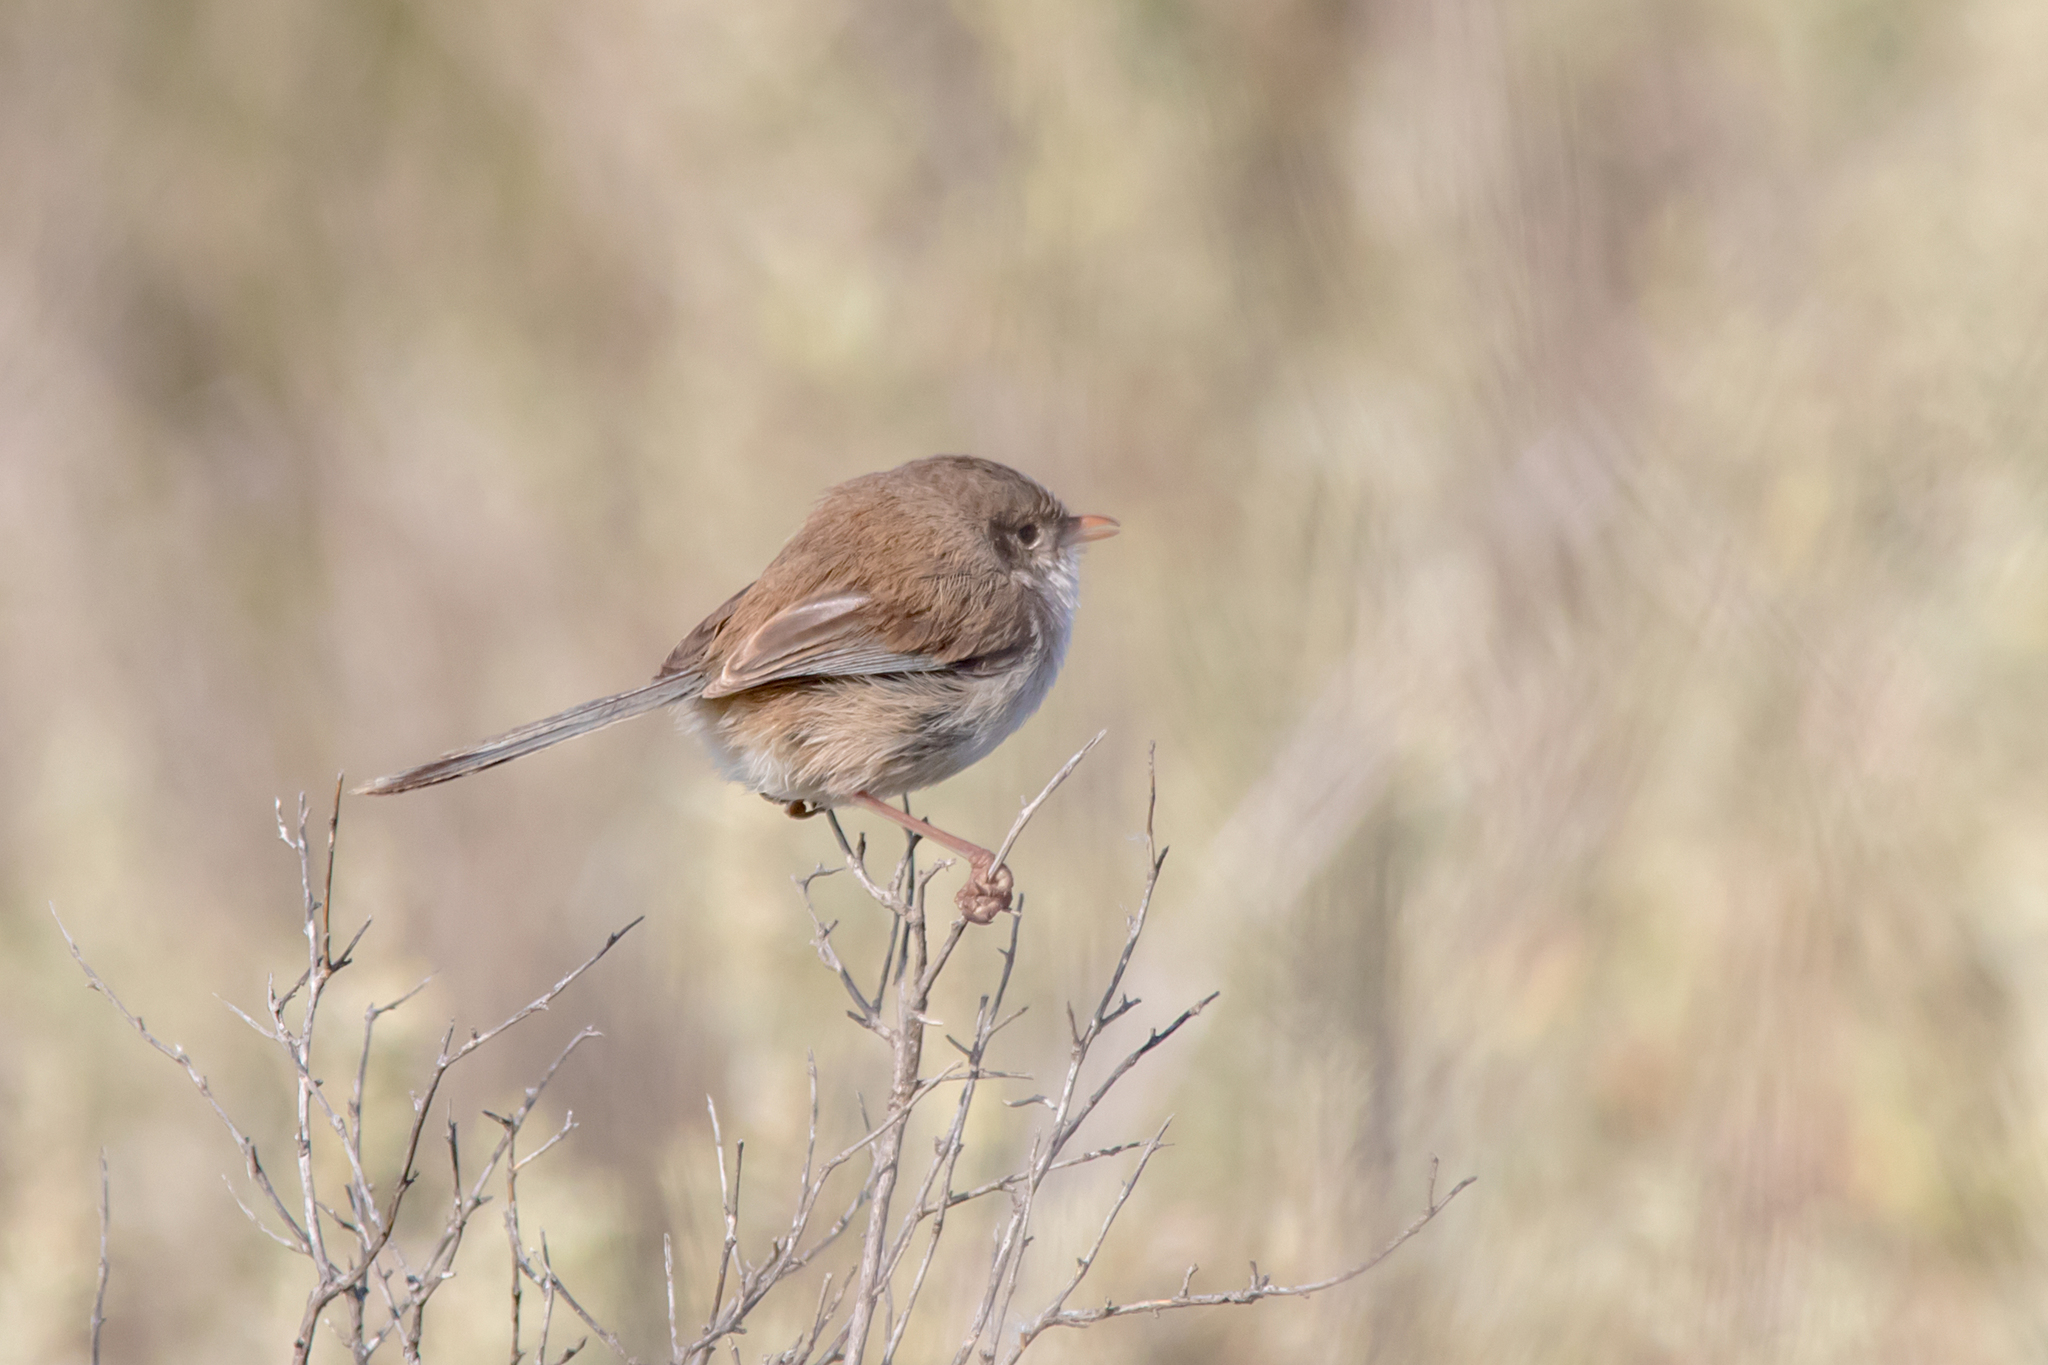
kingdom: Animalia
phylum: Chordata
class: Aves
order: Passeriformes
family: Maluridae
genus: Malurus
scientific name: Malurus leucopterus
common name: White-winged fairywren
